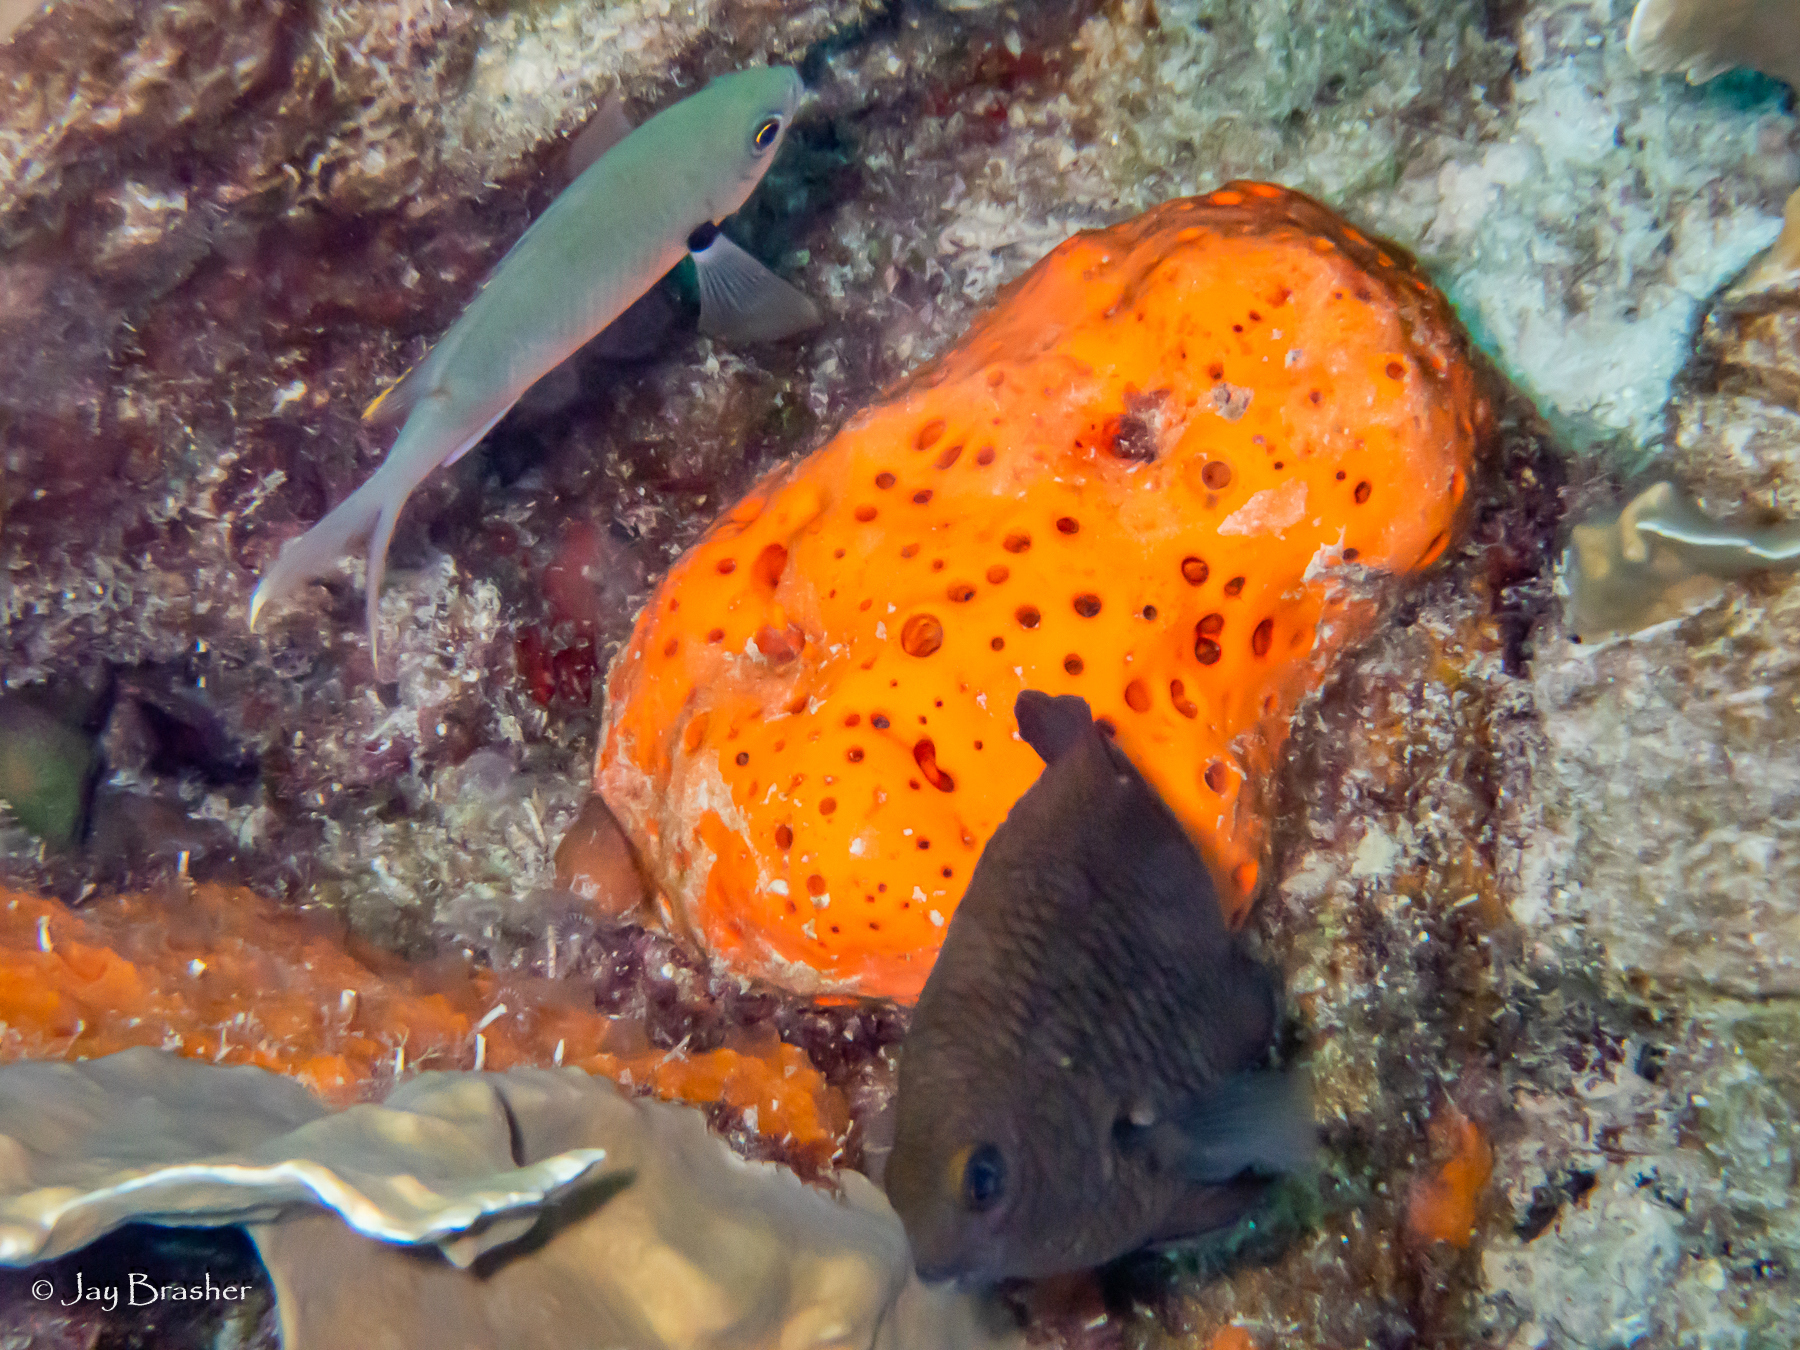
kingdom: Animalia
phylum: Chordata
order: Perciformes
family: Pomacentridae
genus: Stegastes
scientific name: Stegastes planifrons
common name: Threespot damselfish
